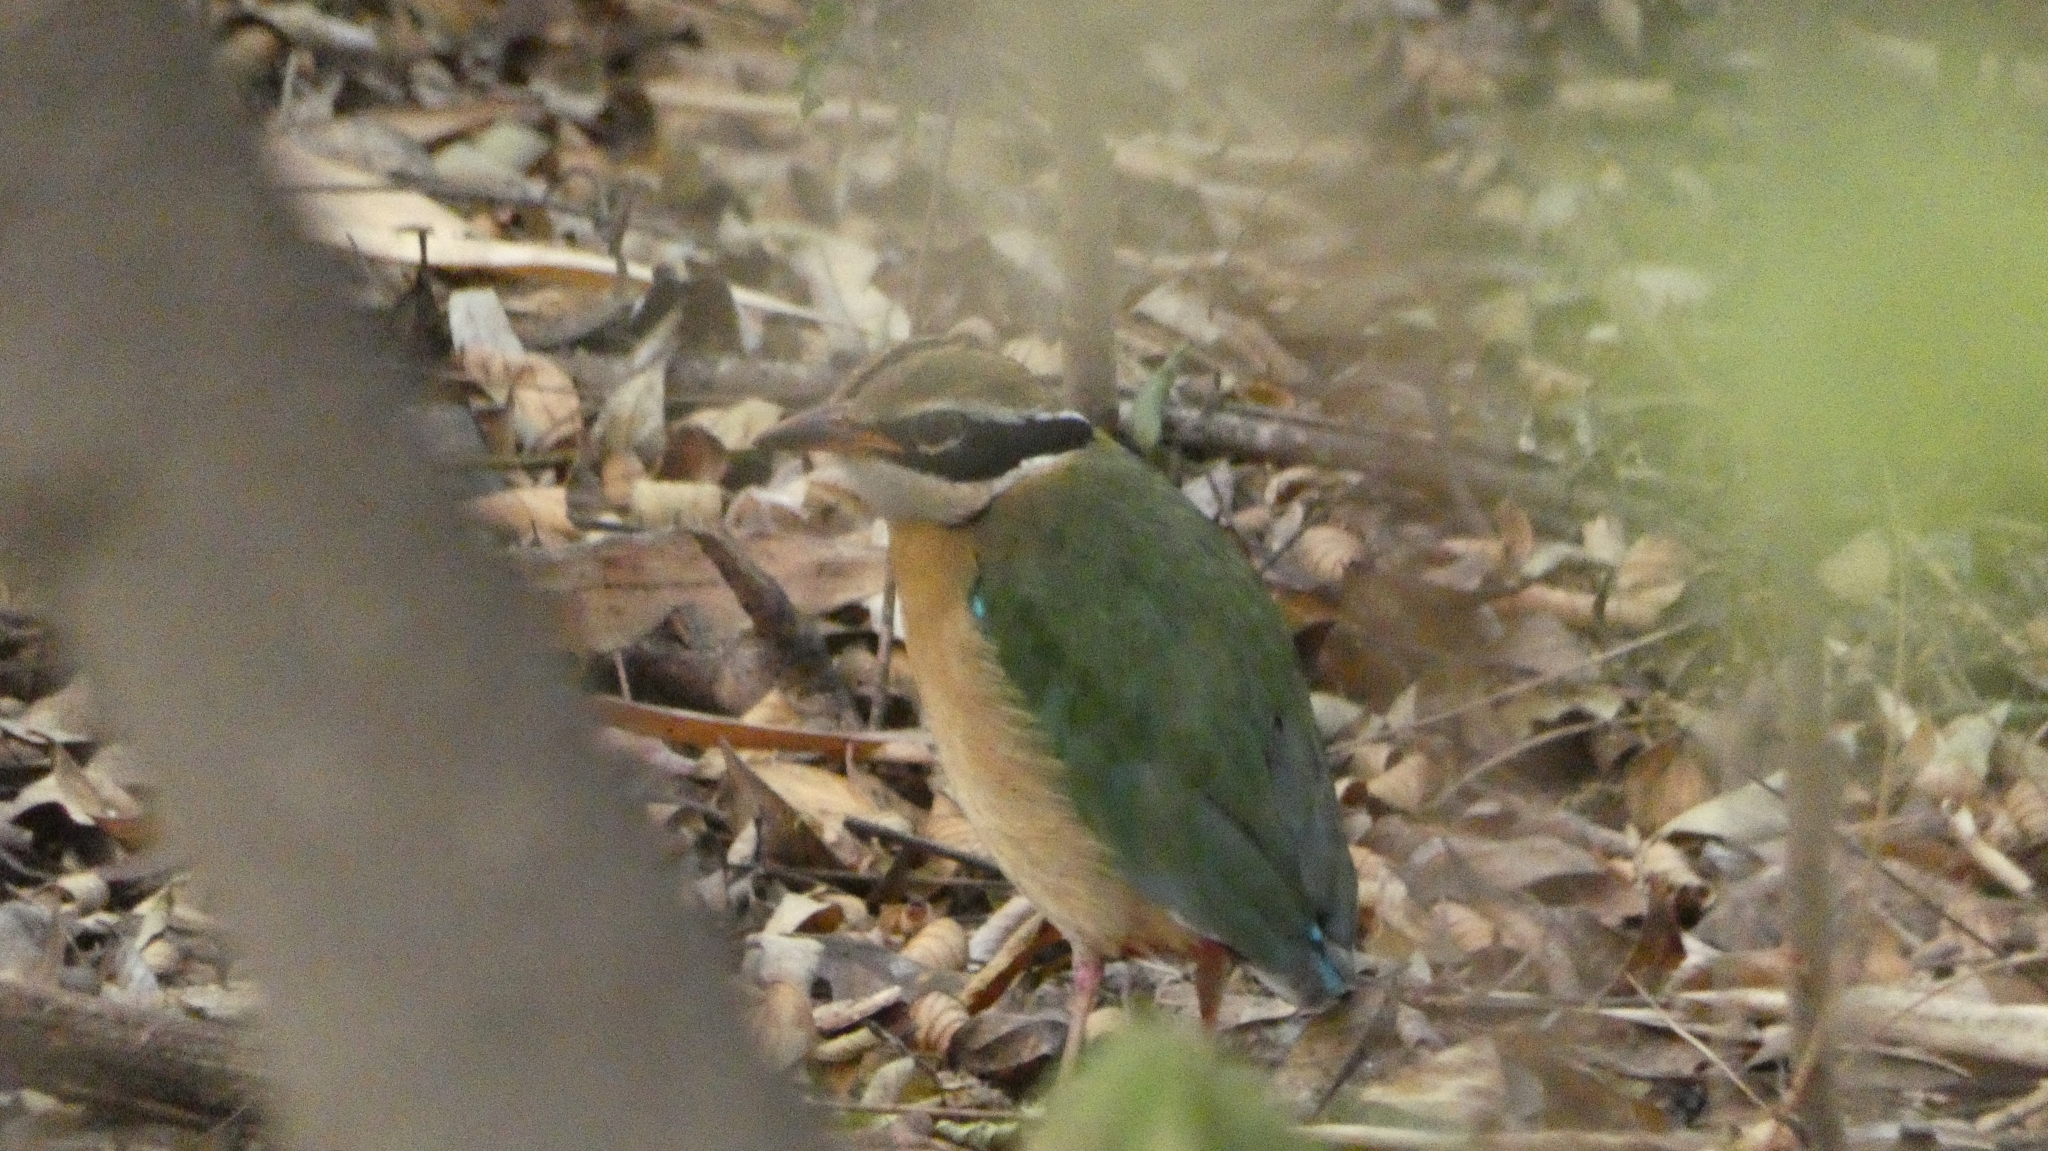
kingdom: Animalia
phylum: Chordata
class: Aves
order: Passeriformes
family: Pittidae
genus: Pitta
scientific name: Pitta brachyura
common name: Indian pitta
